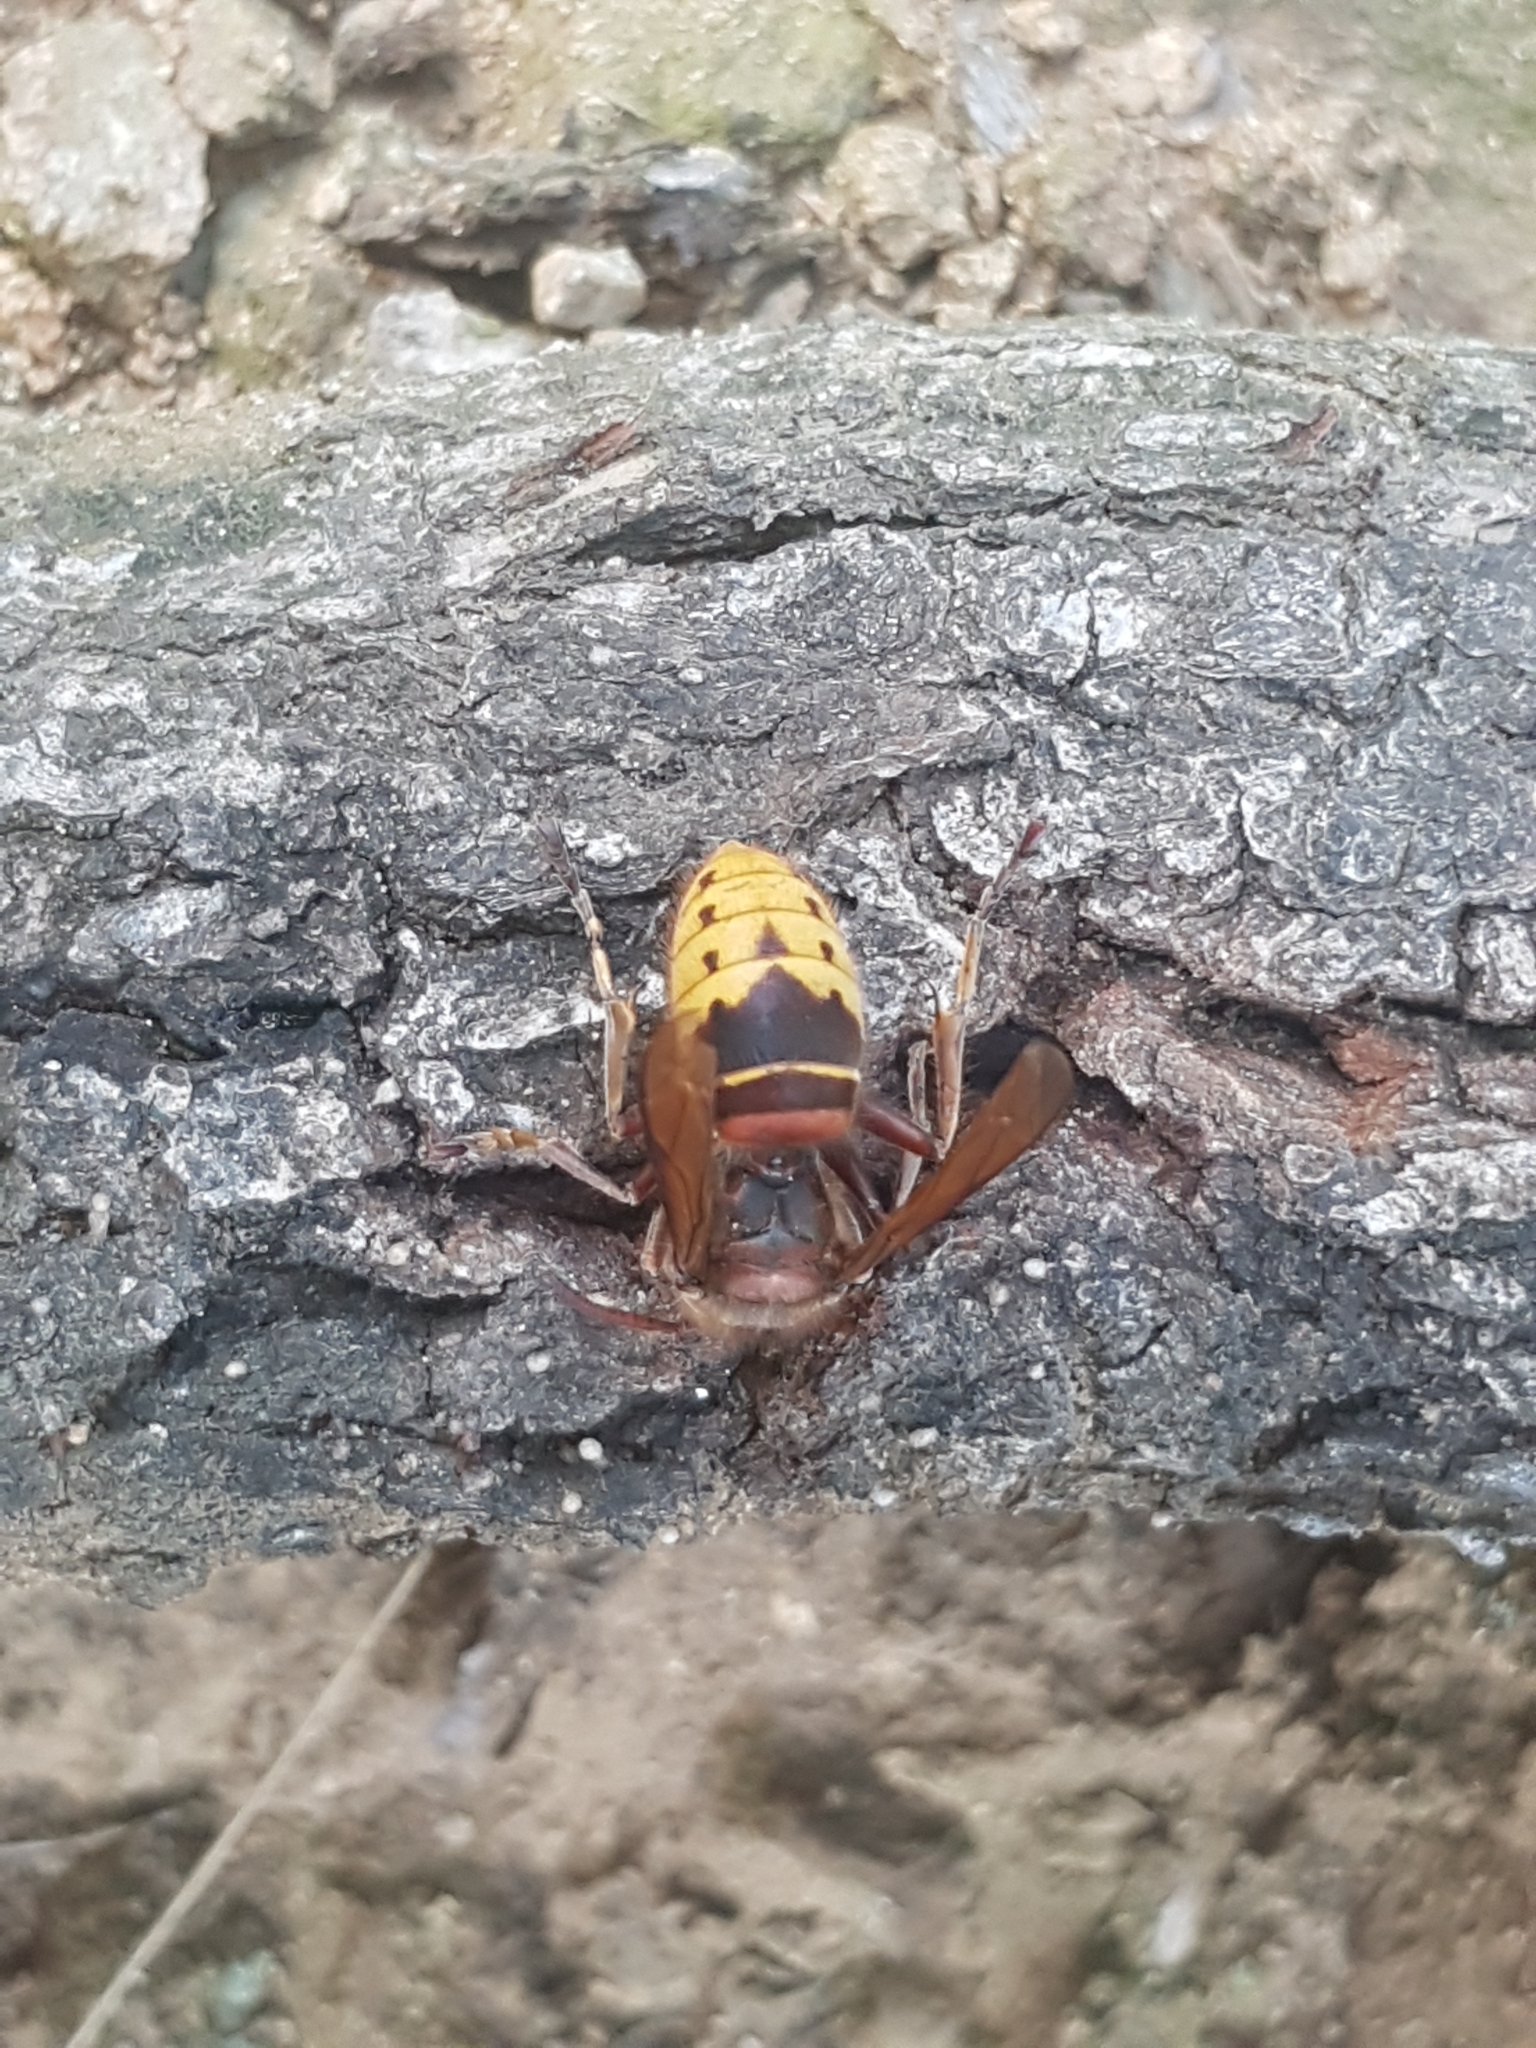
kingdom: Animalia
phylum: Arthropoda
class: Insecta
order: Hymenoptera
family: Vespidae
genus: Vespa
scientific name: Vespa crabro
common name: Hornet
